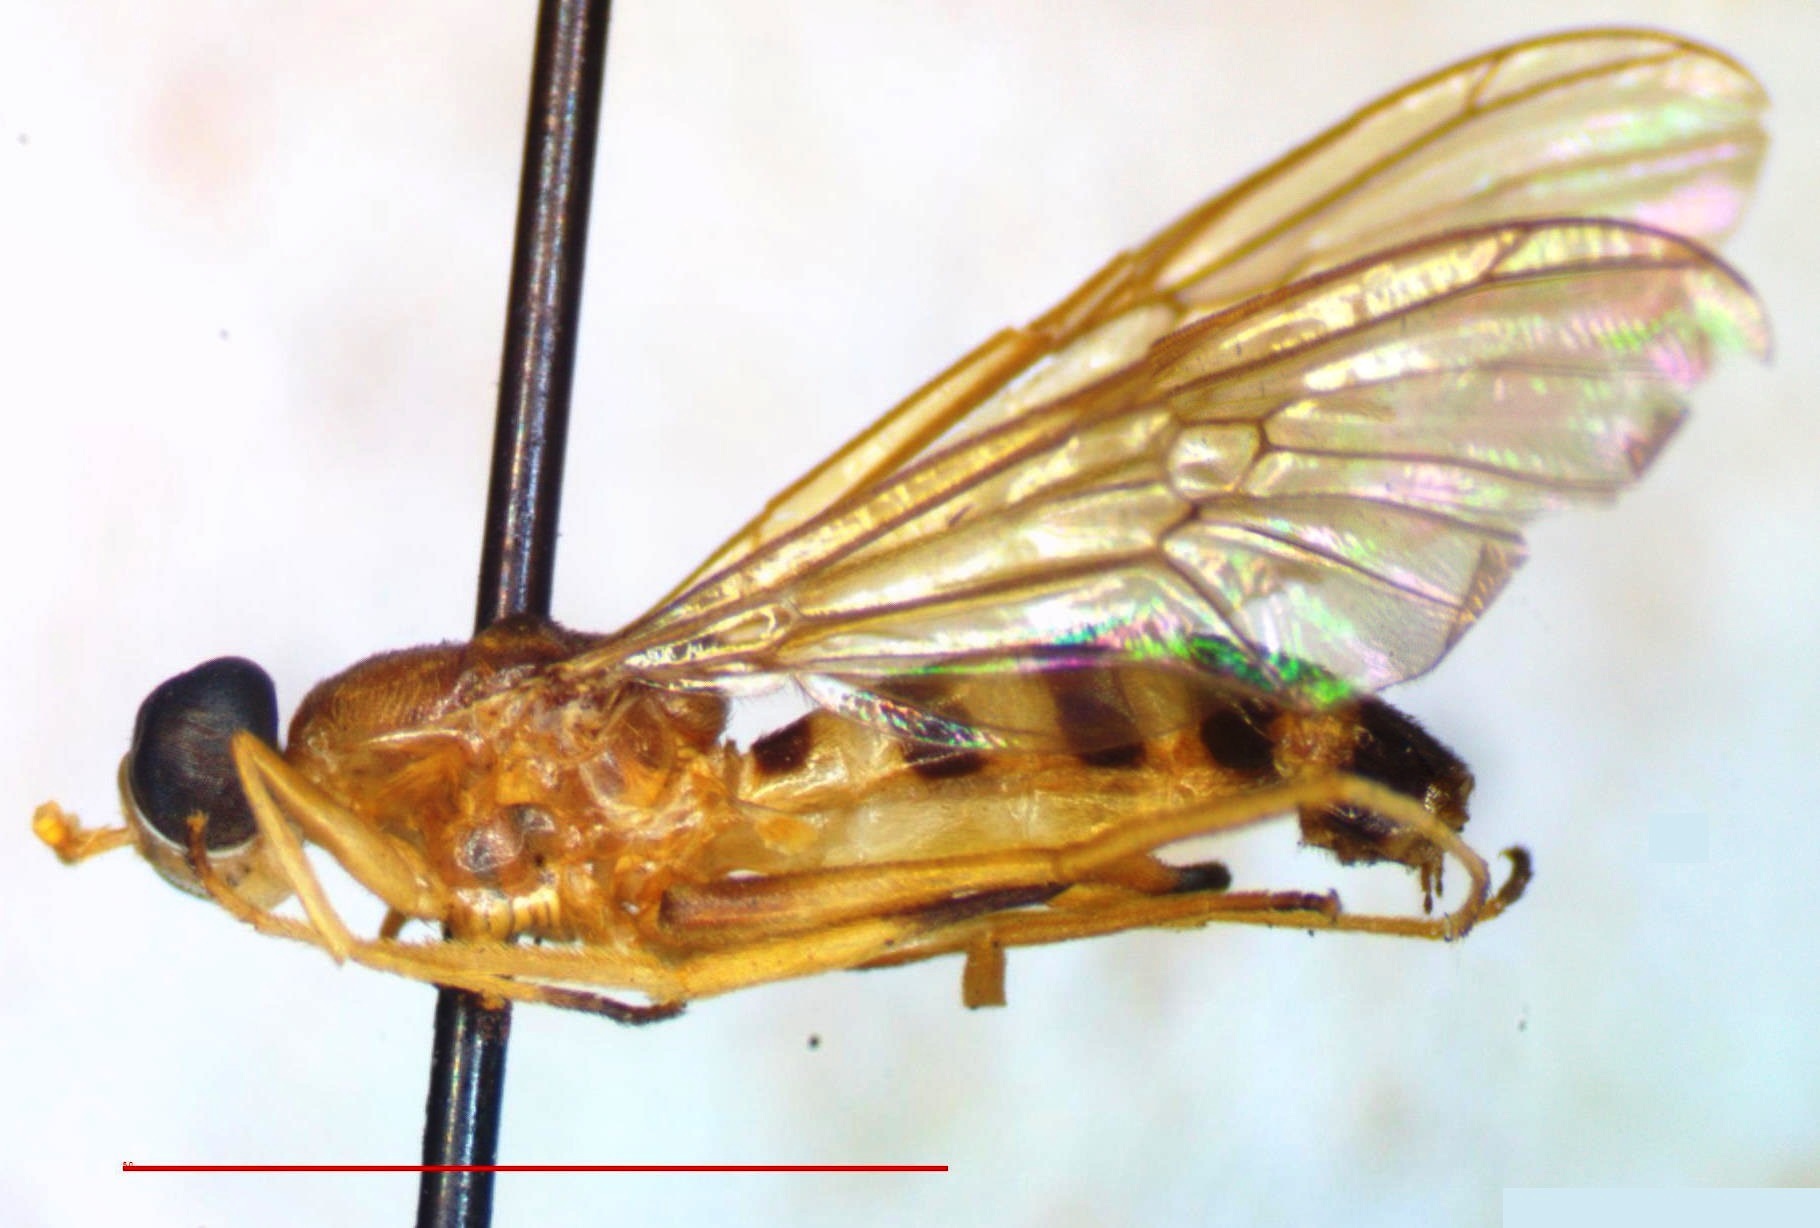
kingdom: Animalia
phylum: Arthropoda
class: Insecta
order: Diptera
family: Stratiomyidae
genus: Merosargus
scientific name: Merosargus pallifrons
